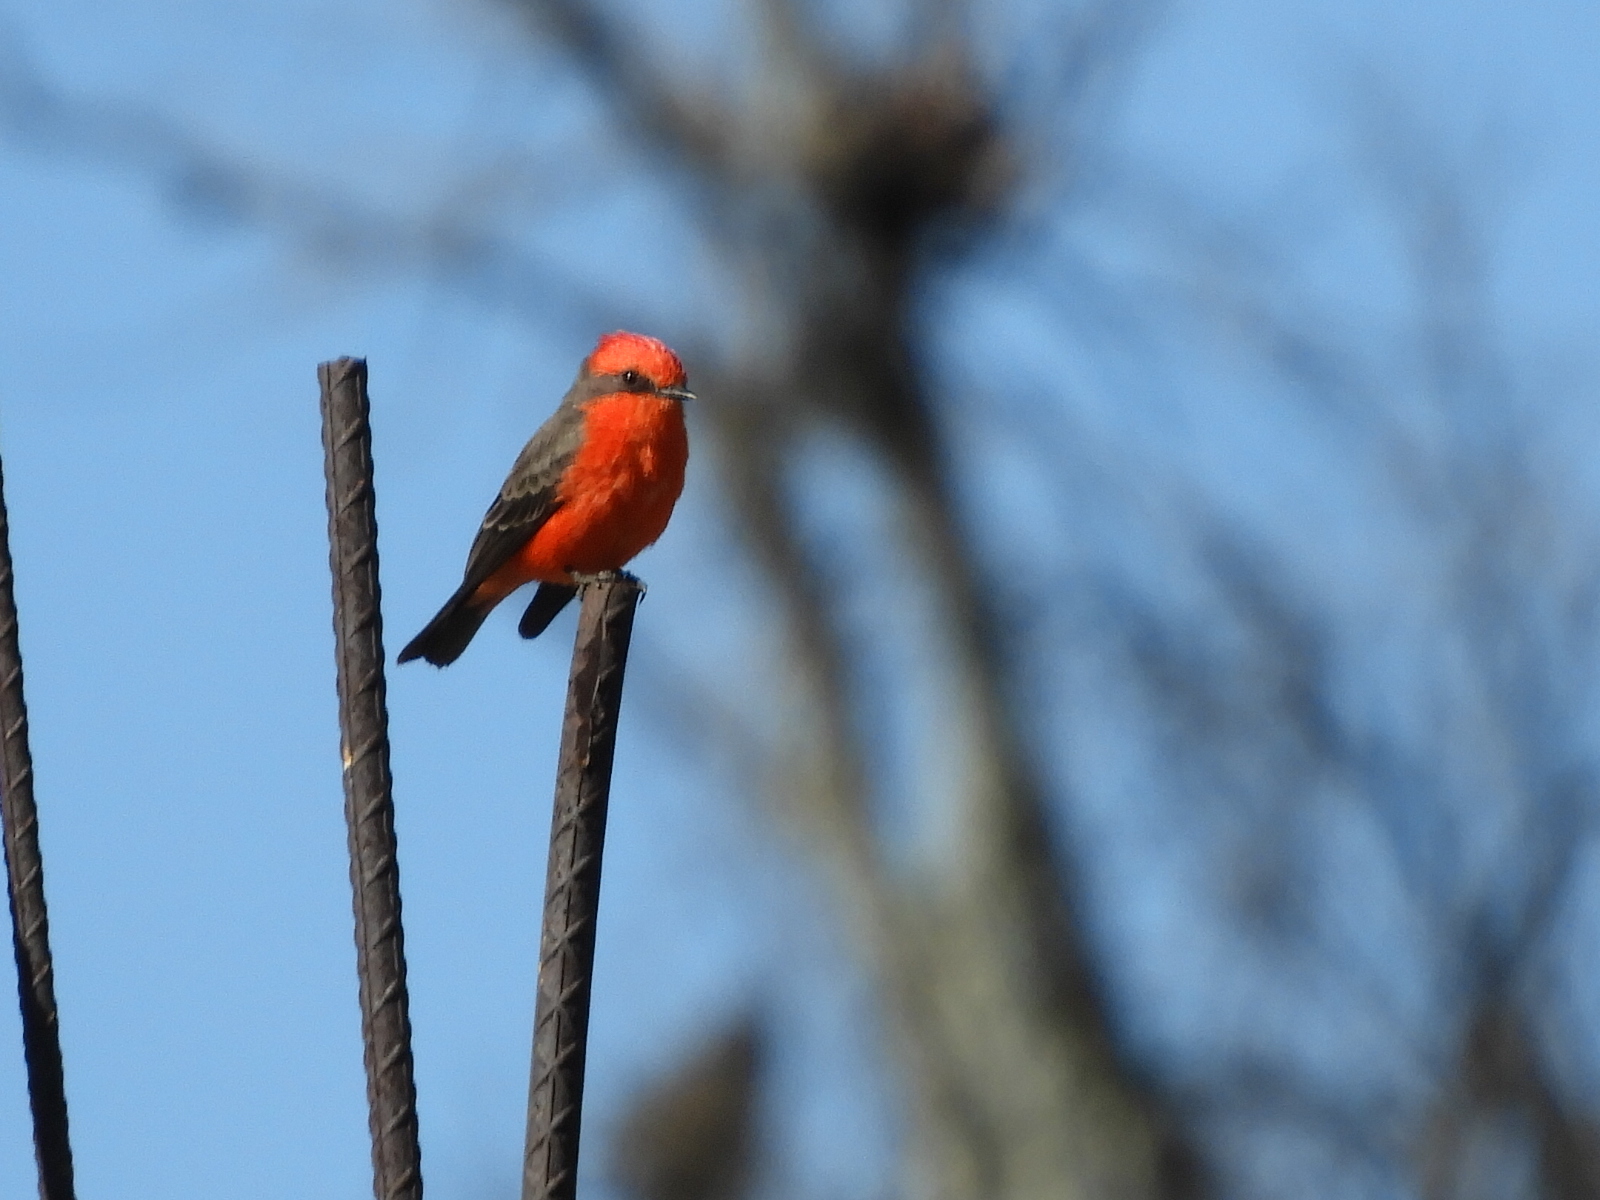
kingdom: Animalia
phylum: Chordata
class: Aves
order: Passeriformes
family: Tyrannidae
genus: Pyrocephalus
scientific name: Pyrocephalus rubinus
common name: Vermilion flycatcher
